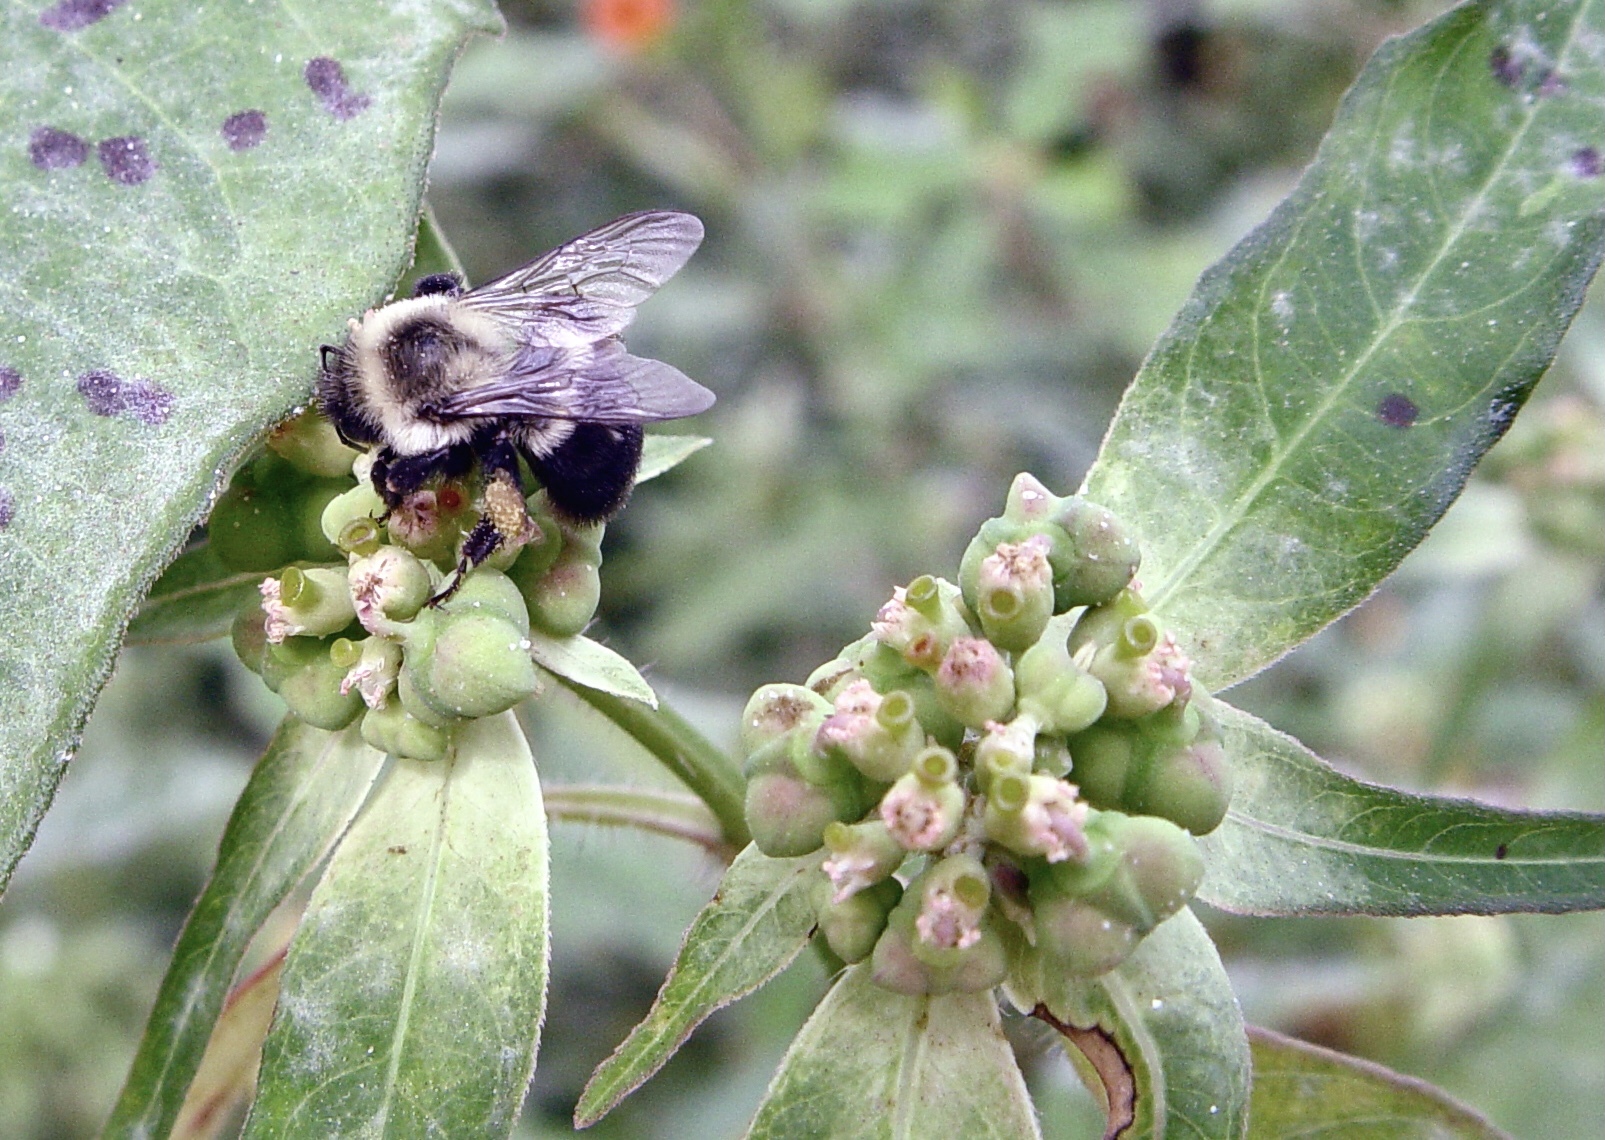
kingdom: Animalia
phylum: Arthropoda
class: Insecta
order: Hymenoptera
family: Apidae
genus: Bombus
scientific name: Bombus impatiens
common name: Common eastern bumble bee
